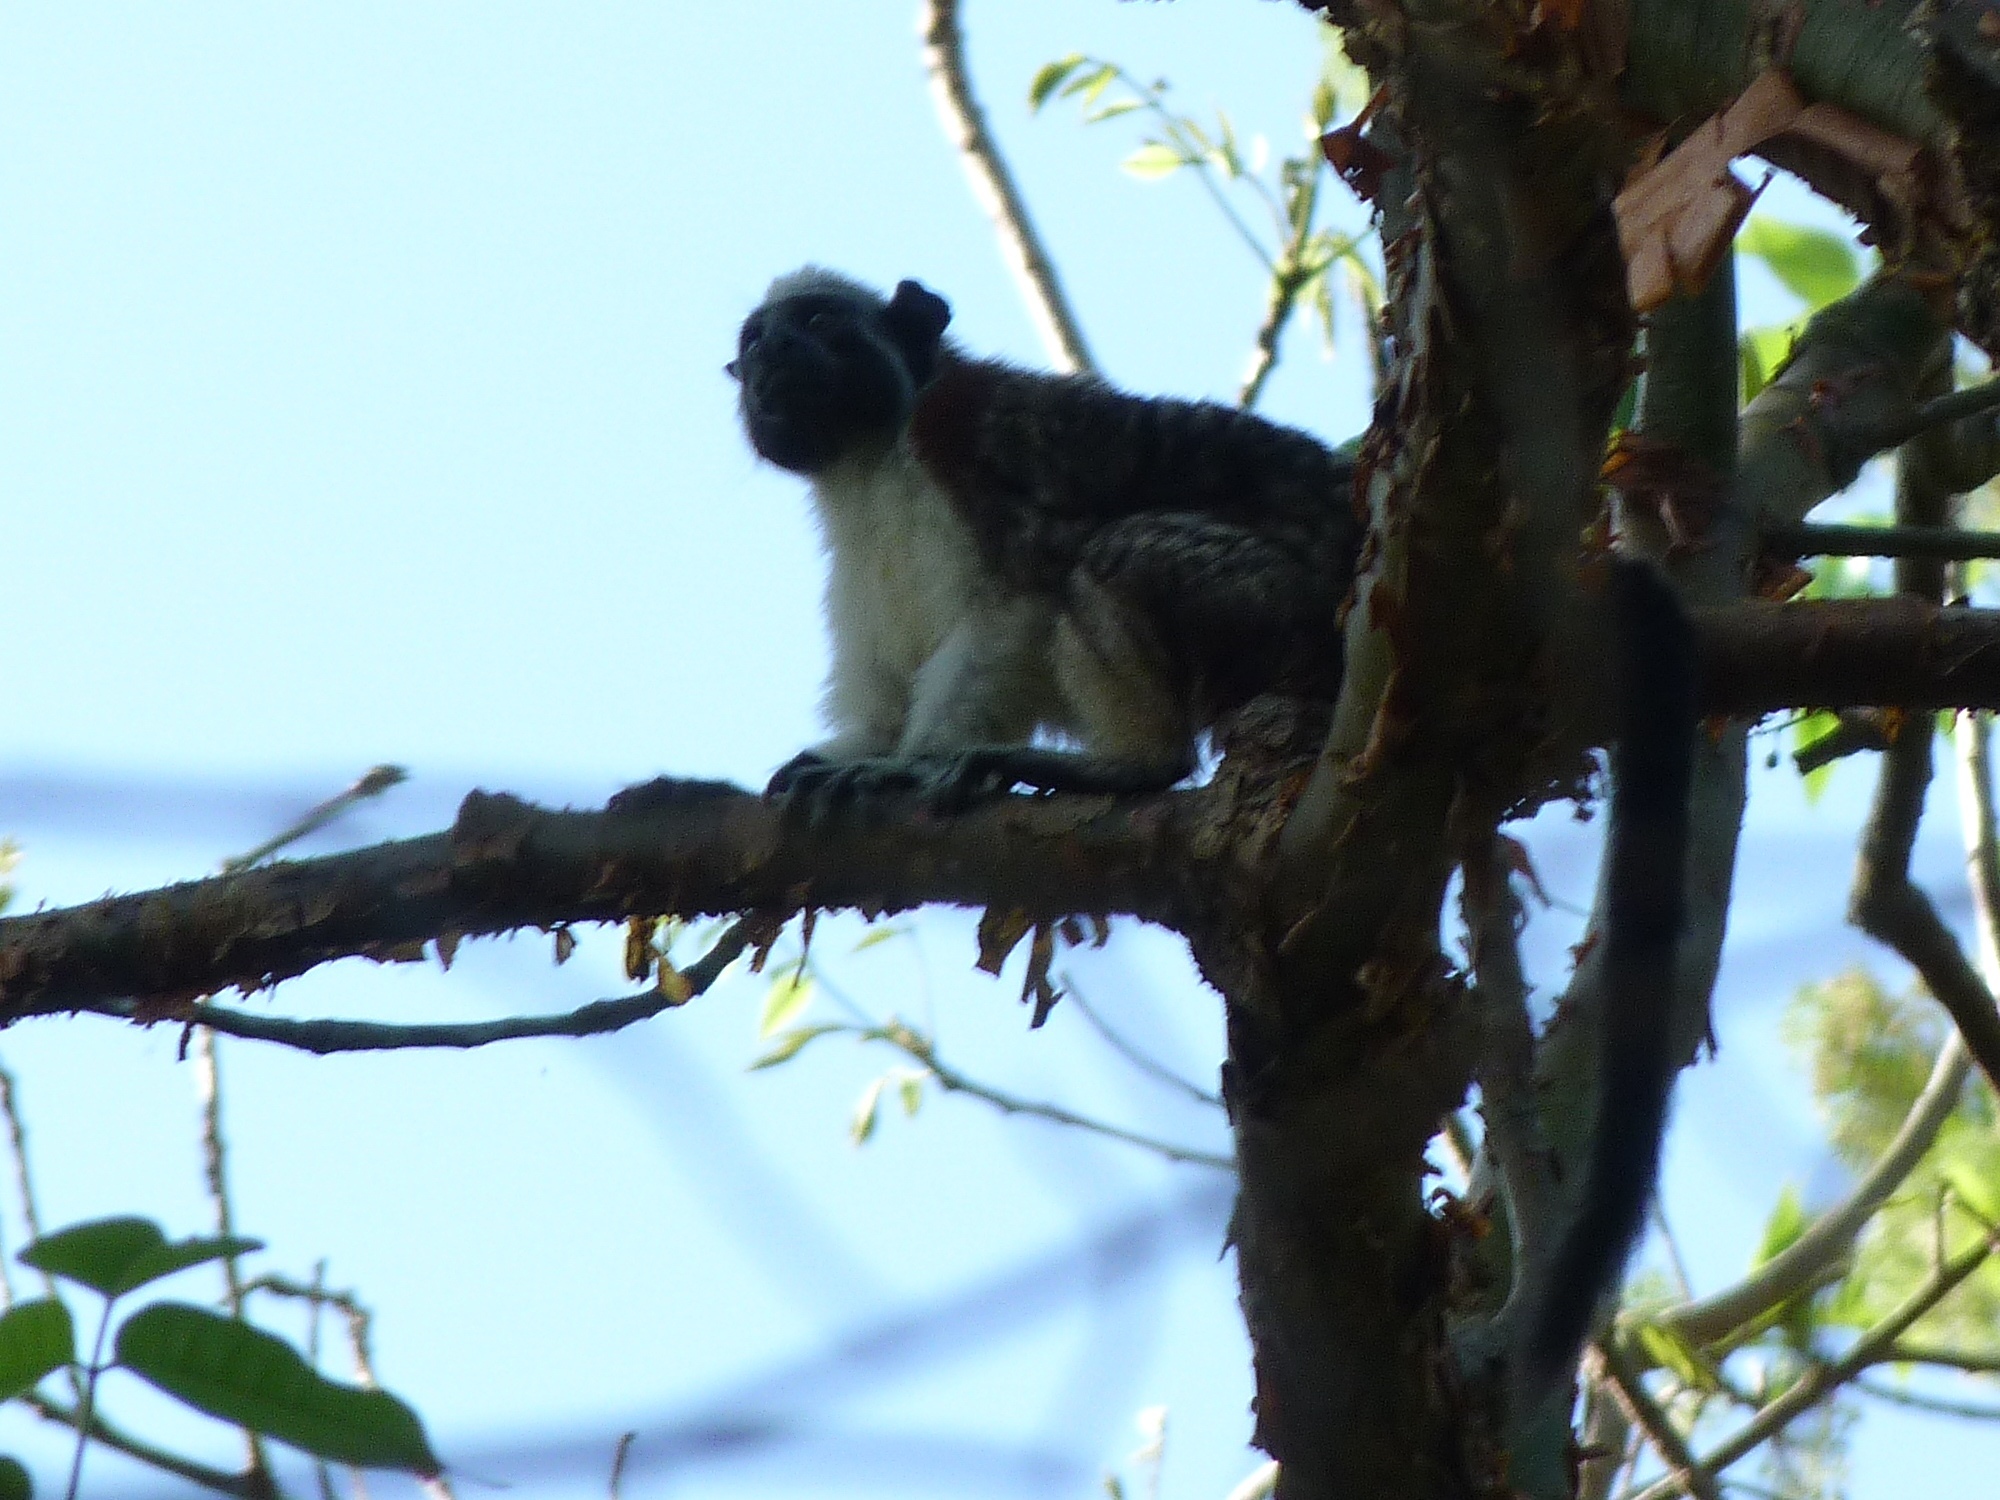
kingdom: Animalia
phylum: Chordata
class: Mammalia
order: Primates
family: Callitrichidae
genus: Saguinus
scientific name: Saguinus geoffroyi
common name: Geoffroy s tamarin
